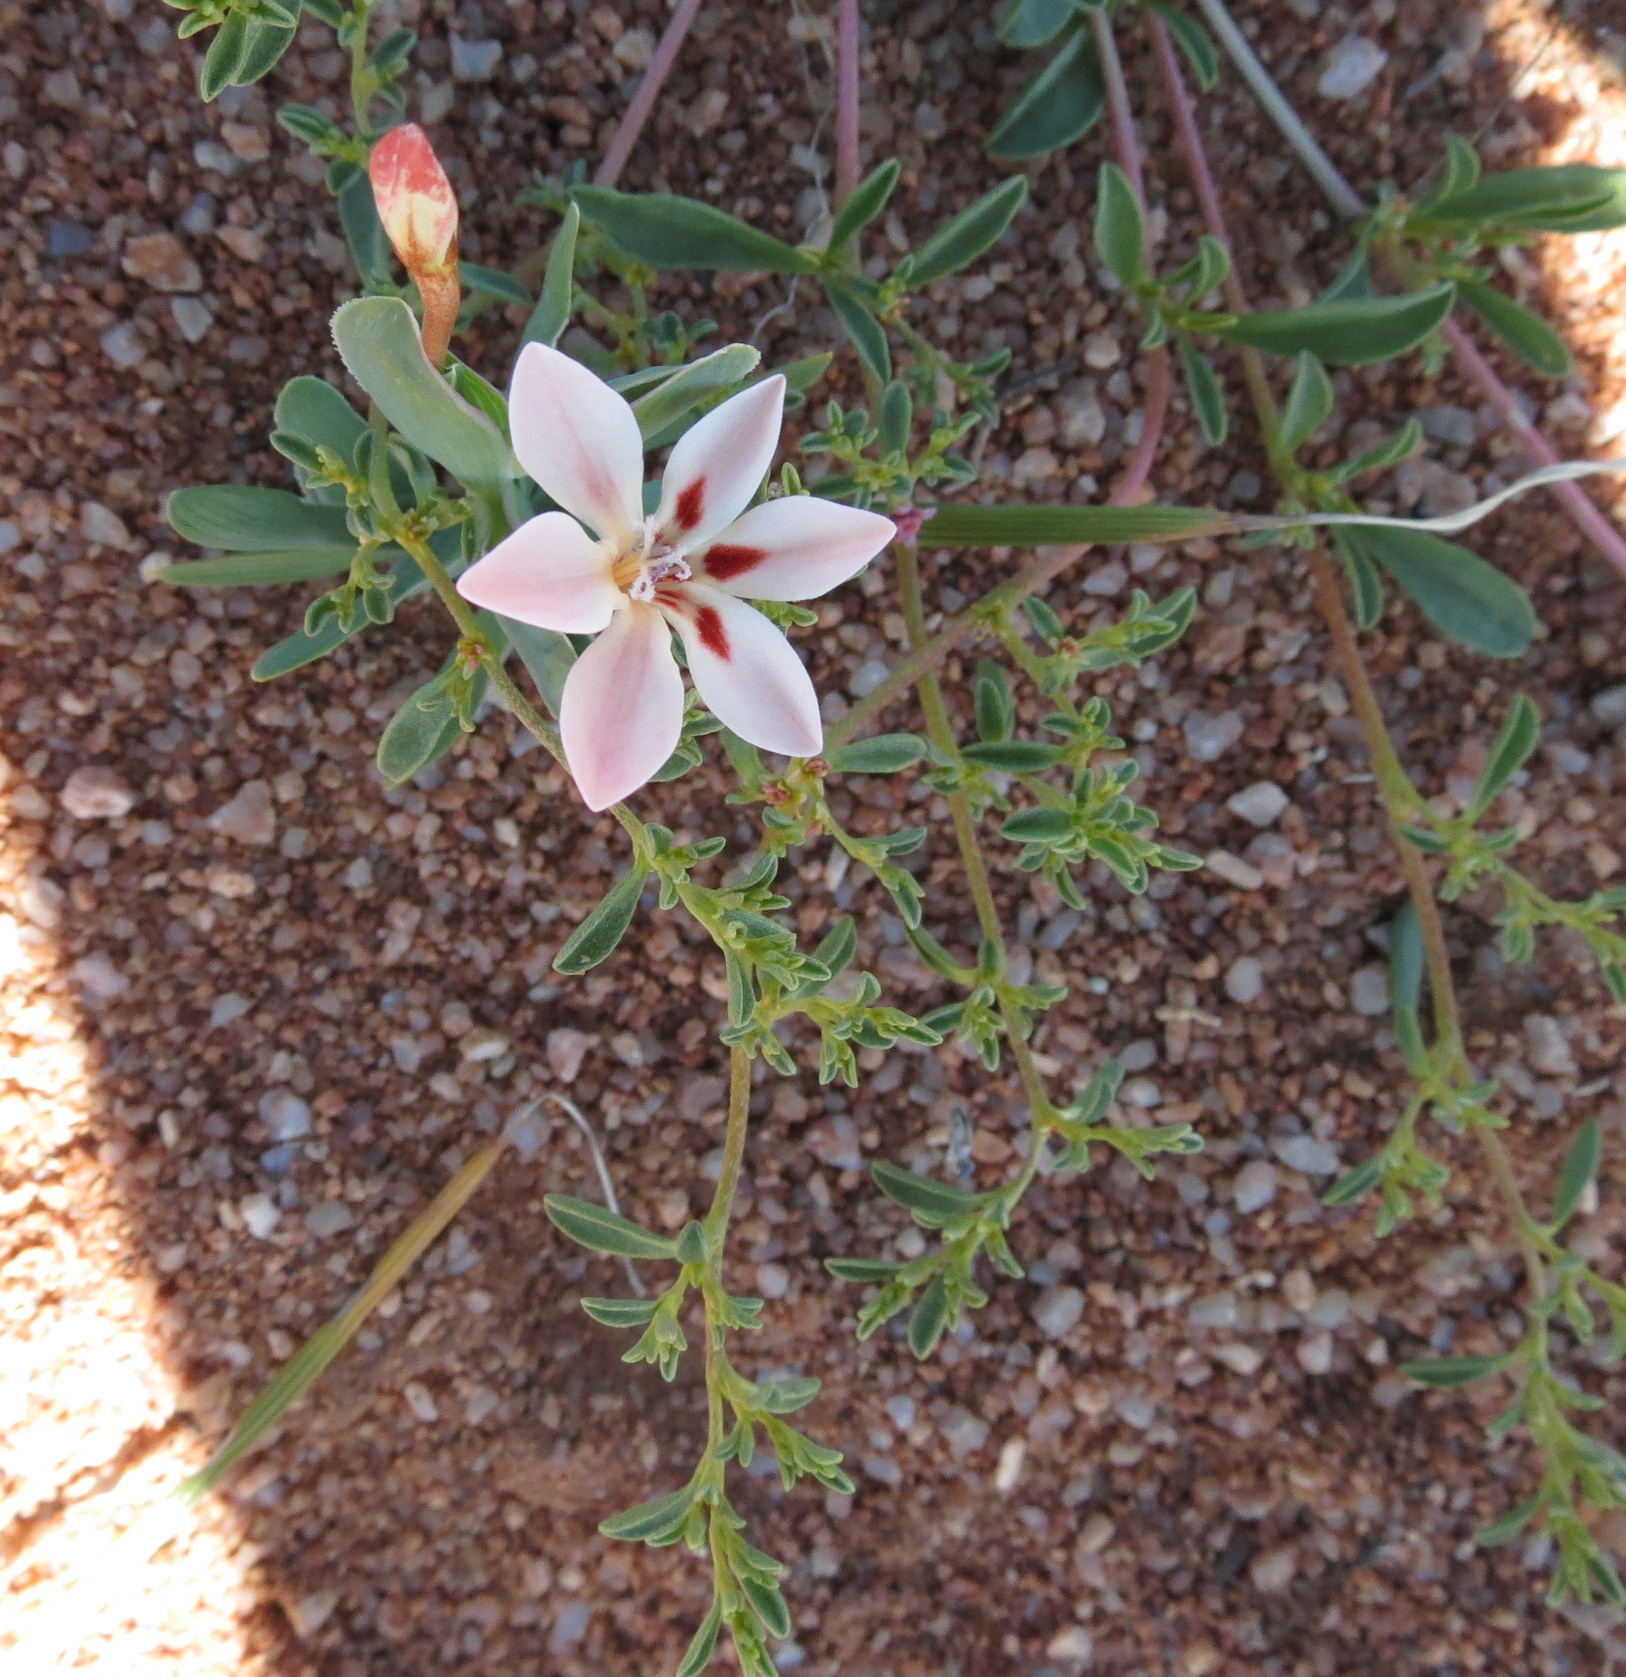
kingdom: Plantae
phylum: Tracheophyta
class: Liliopsida
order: Asparagales
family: Iridaceae
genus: Lapeirousia
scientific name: Lapeirousia arenicola
